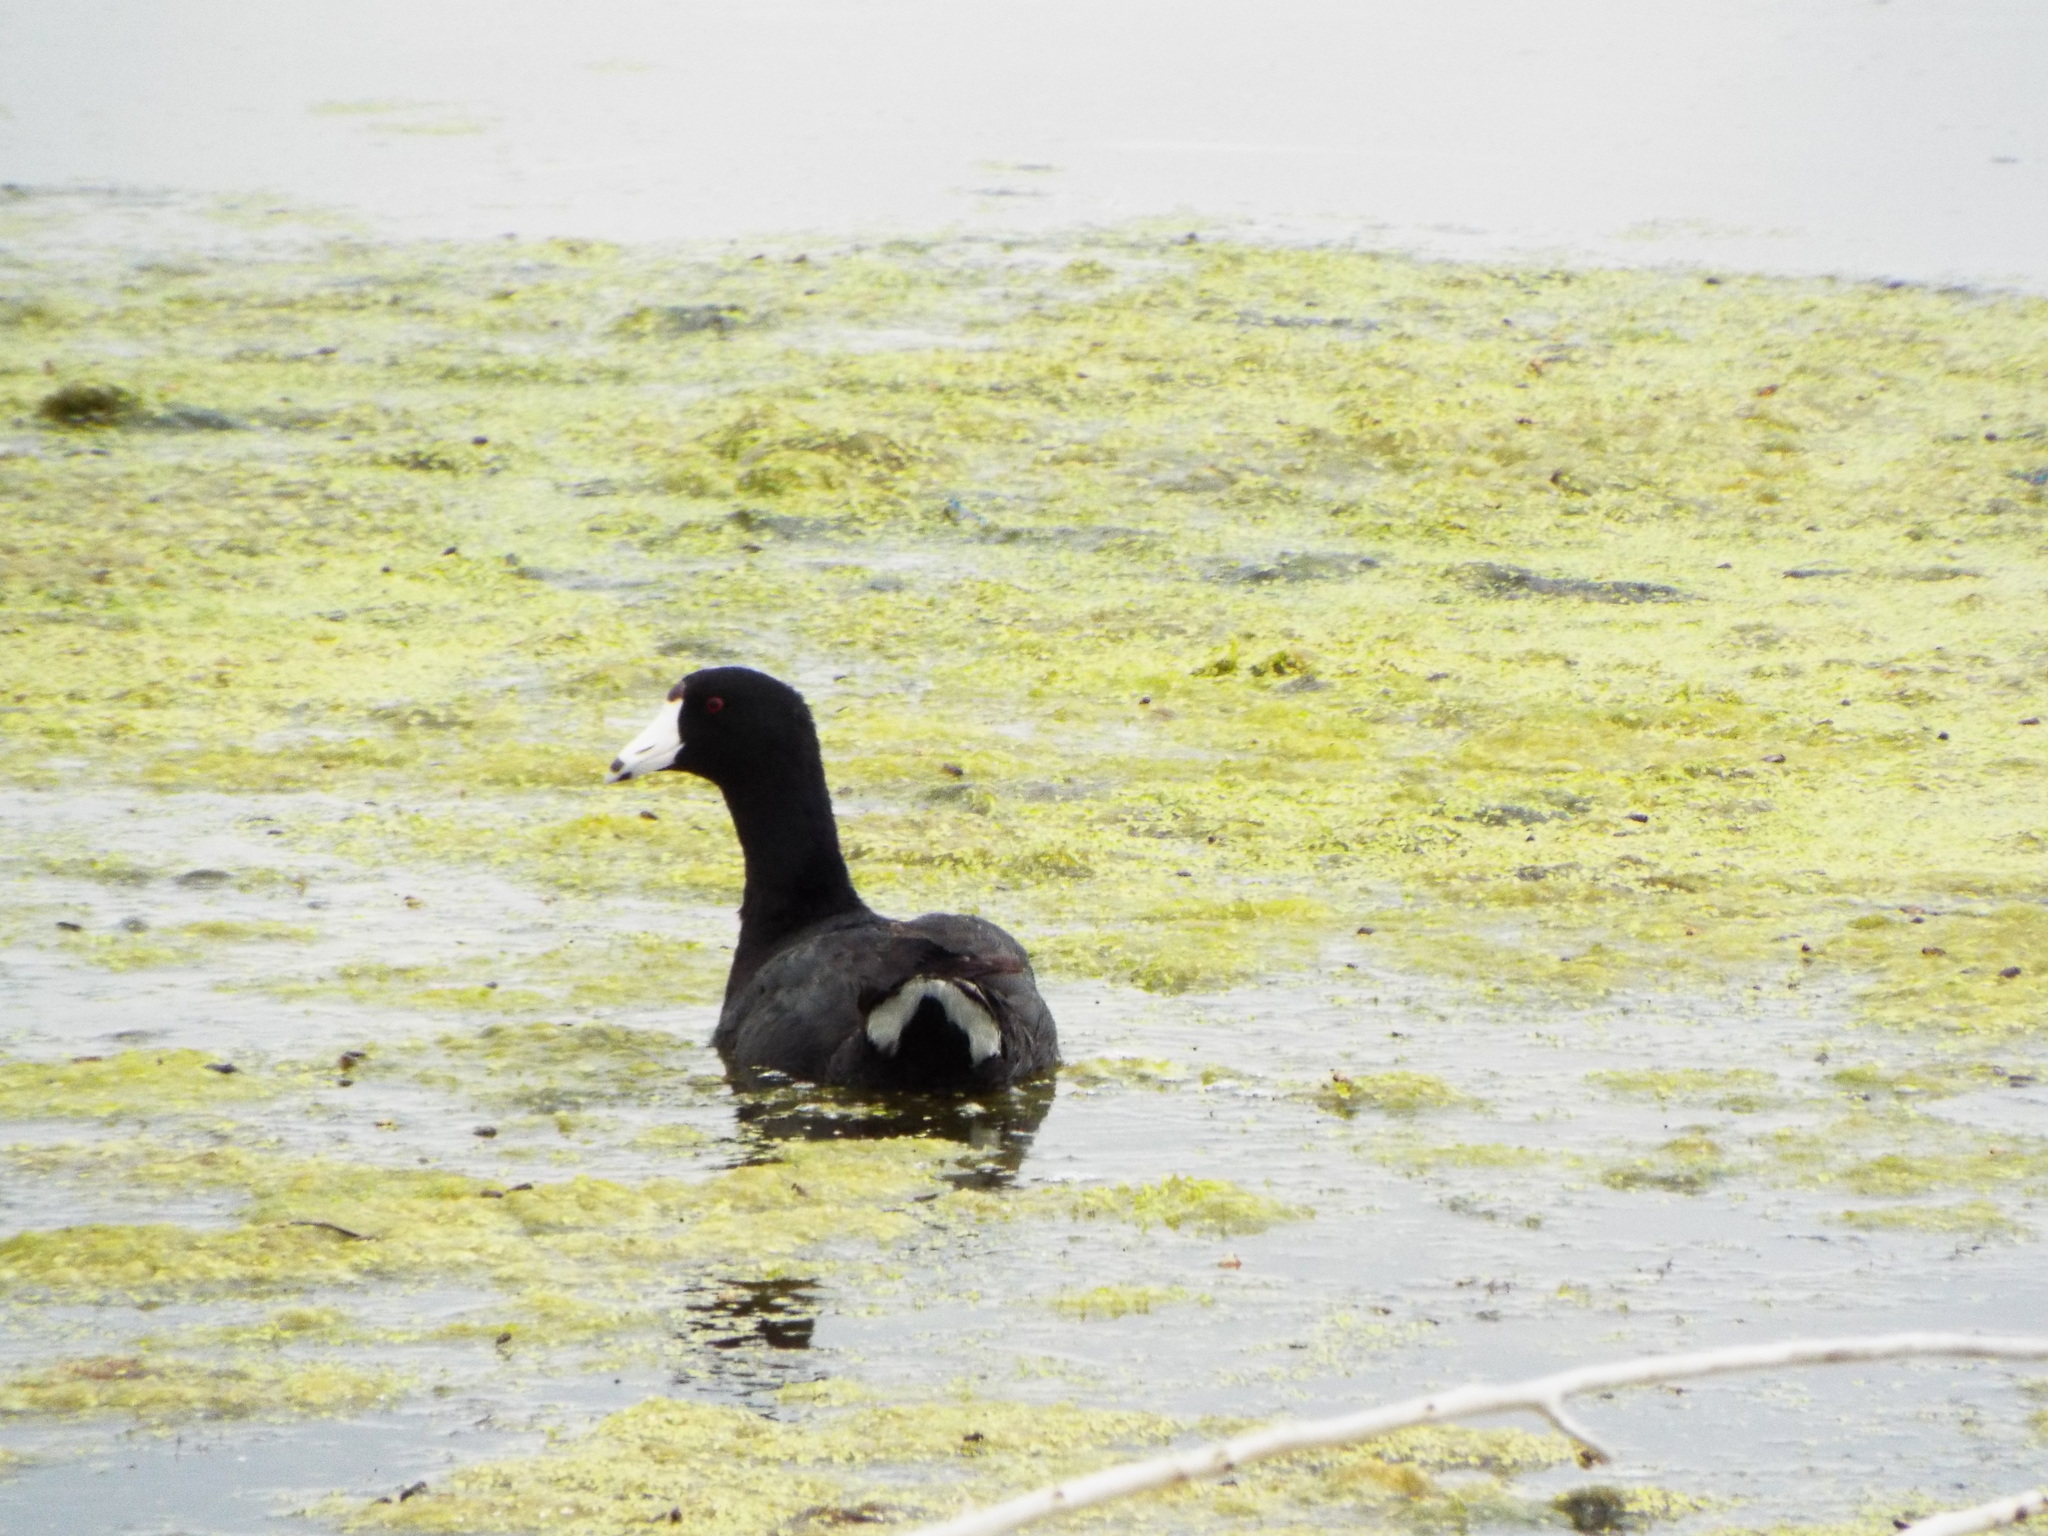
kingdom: Animalia
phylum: Chordata
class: Aves
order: Gruiformes
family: Rallidae
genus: Fulica
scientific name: Fulica americana
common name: American coot
